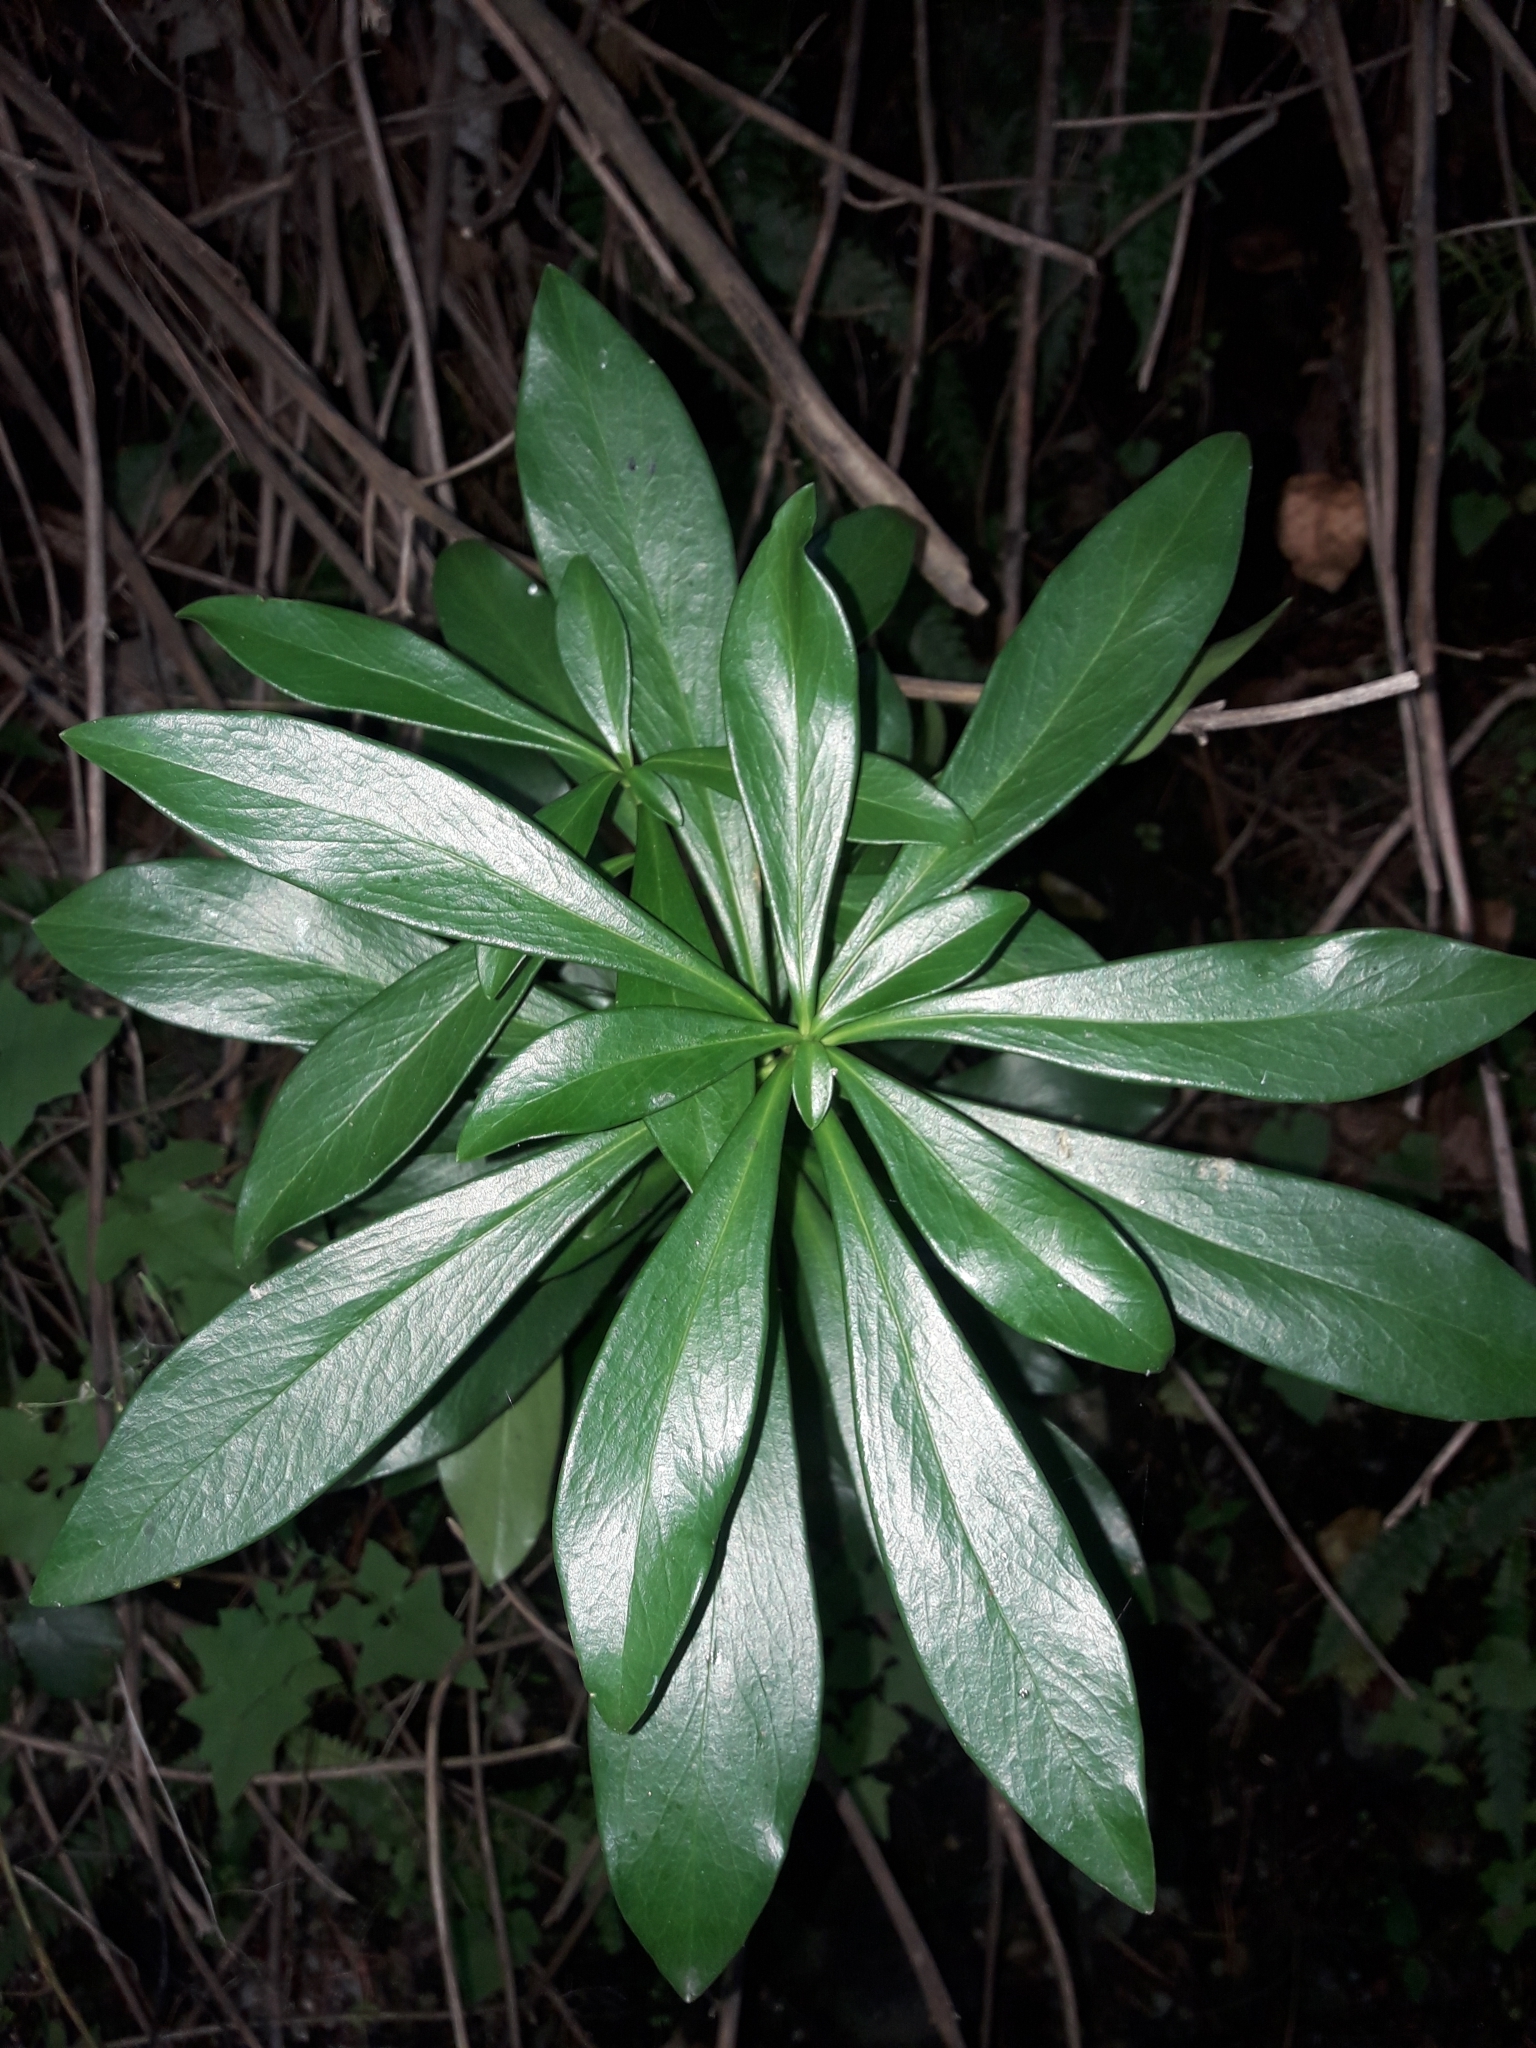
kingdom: Plantae
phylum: Tracheophyta
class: Magnoliopsida
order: Malvales
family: Thymelaeaceae
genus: Daphne
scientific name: Daphne laureola
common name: Spurge-laurel
